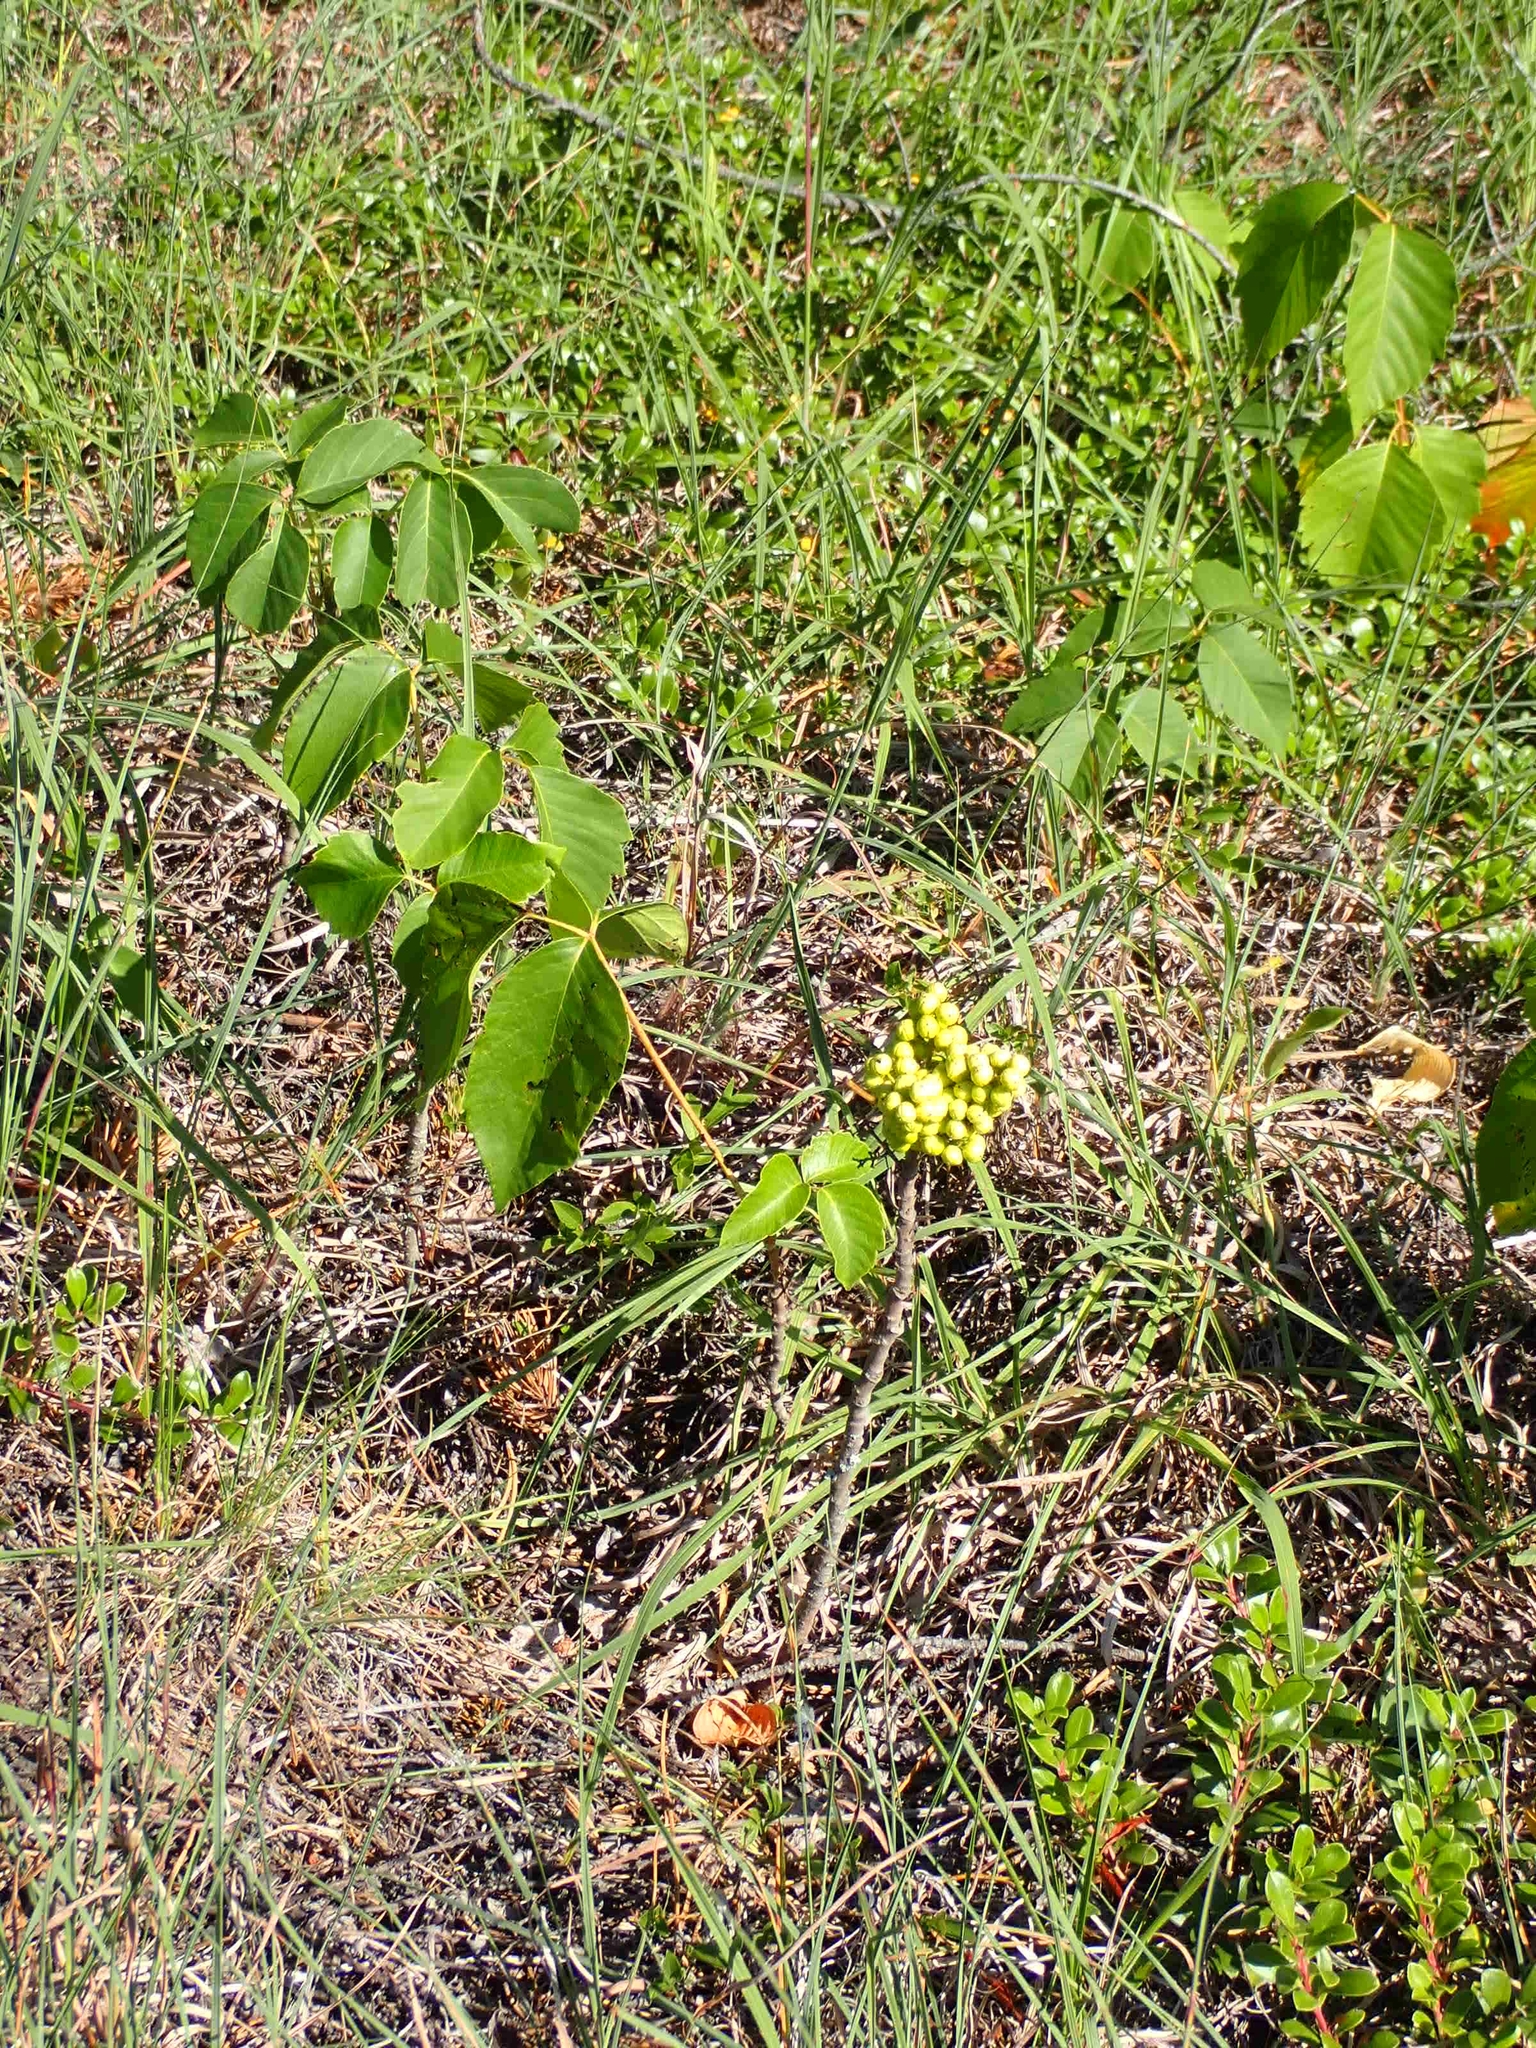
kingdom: Plantae
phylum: Tracheophyta
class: Magnoliopsida
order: Sapindales
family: Anacardiaceae
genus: Toxicodendron
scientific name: Toxicodendron rydbergii
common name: Rydberg's poison-ivy
